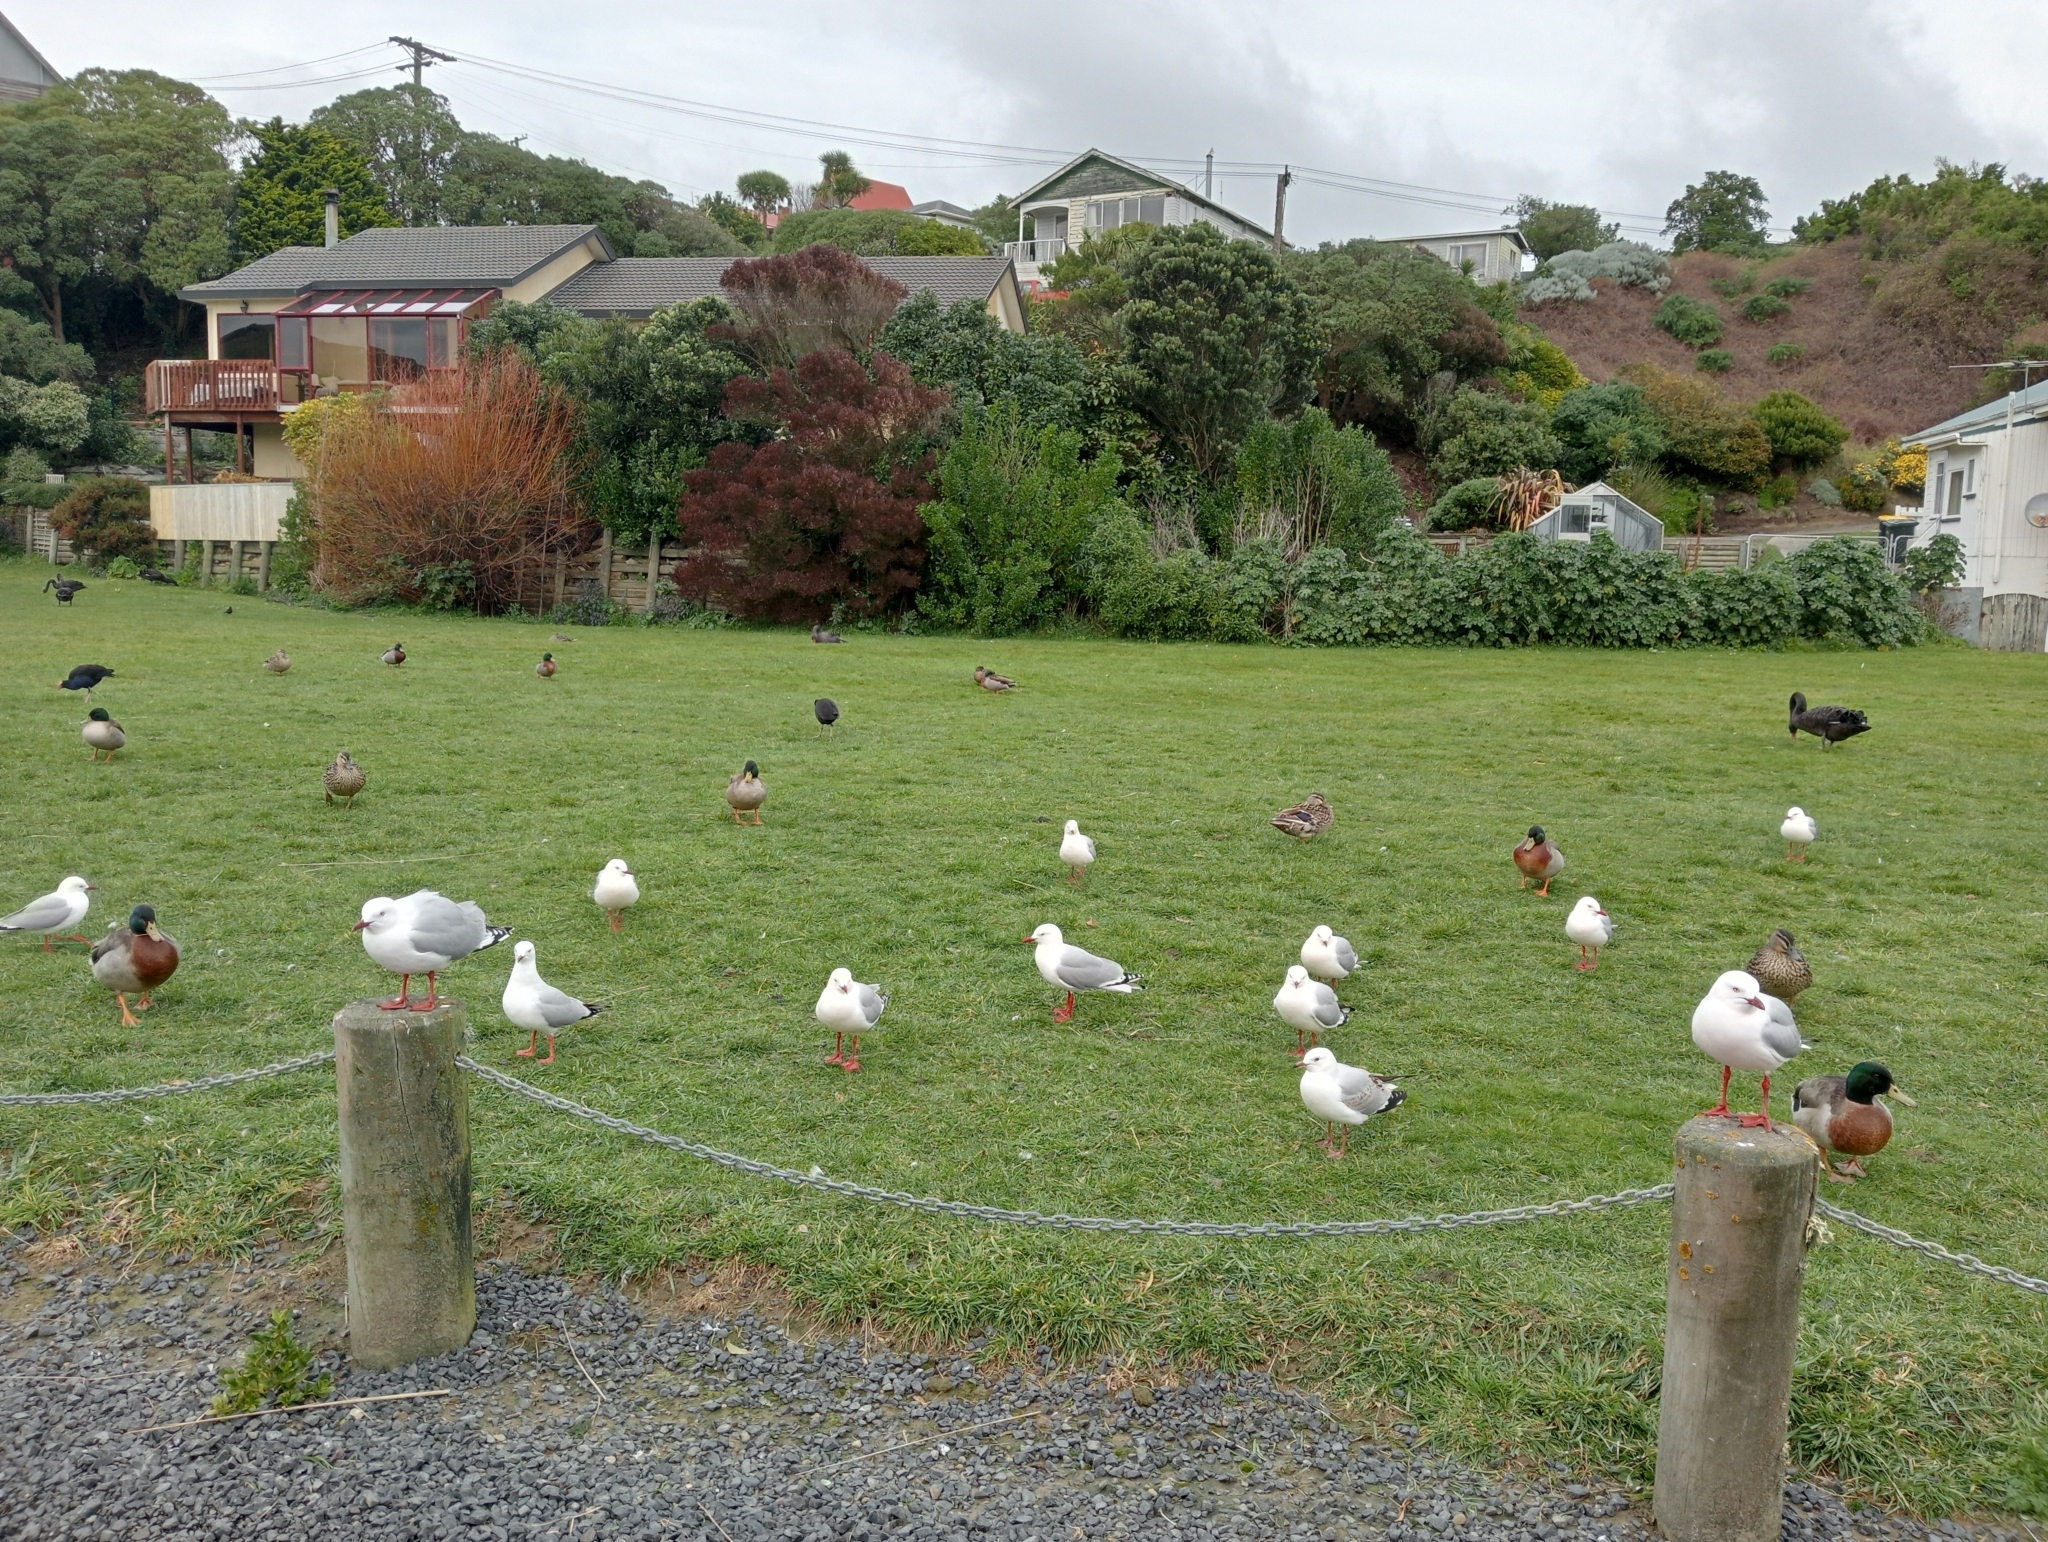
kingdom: Animalia
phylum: Chordata
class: Aves
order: Charadriiformes
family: Laridae
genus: Chroicocephalus
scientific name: Chroicocephalus novaehollandiae
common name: Silver gull
